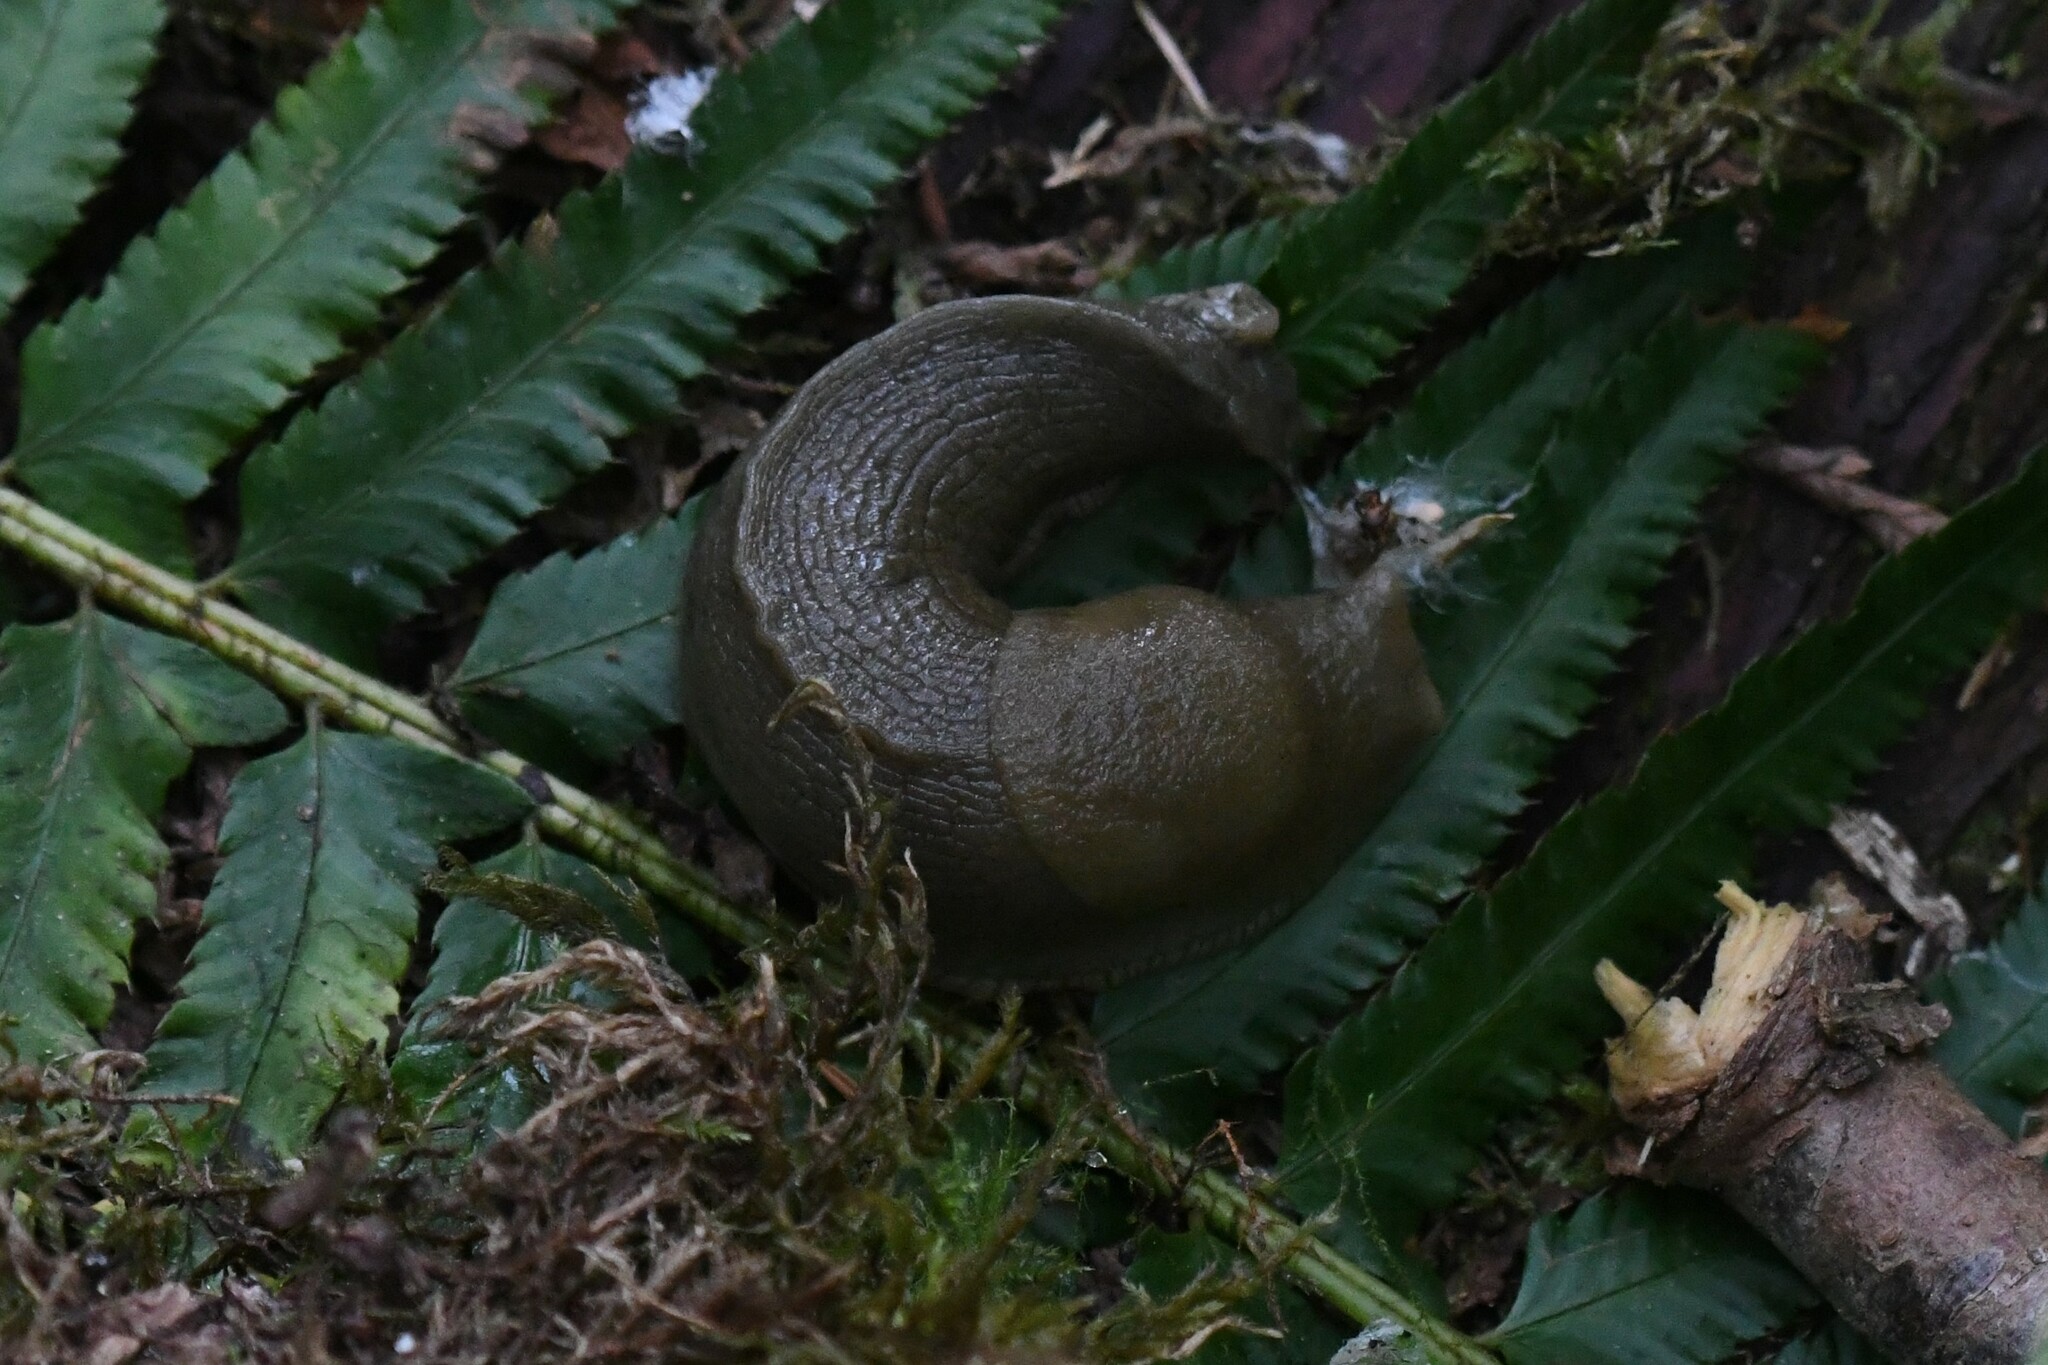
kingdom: Animalia
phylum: Mollusca
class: Gastropoda
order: Stylommatophora
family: Ariolimacidae
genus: Ariolimax
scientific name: Ariolimax columbianus
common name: Pacific banana slug
